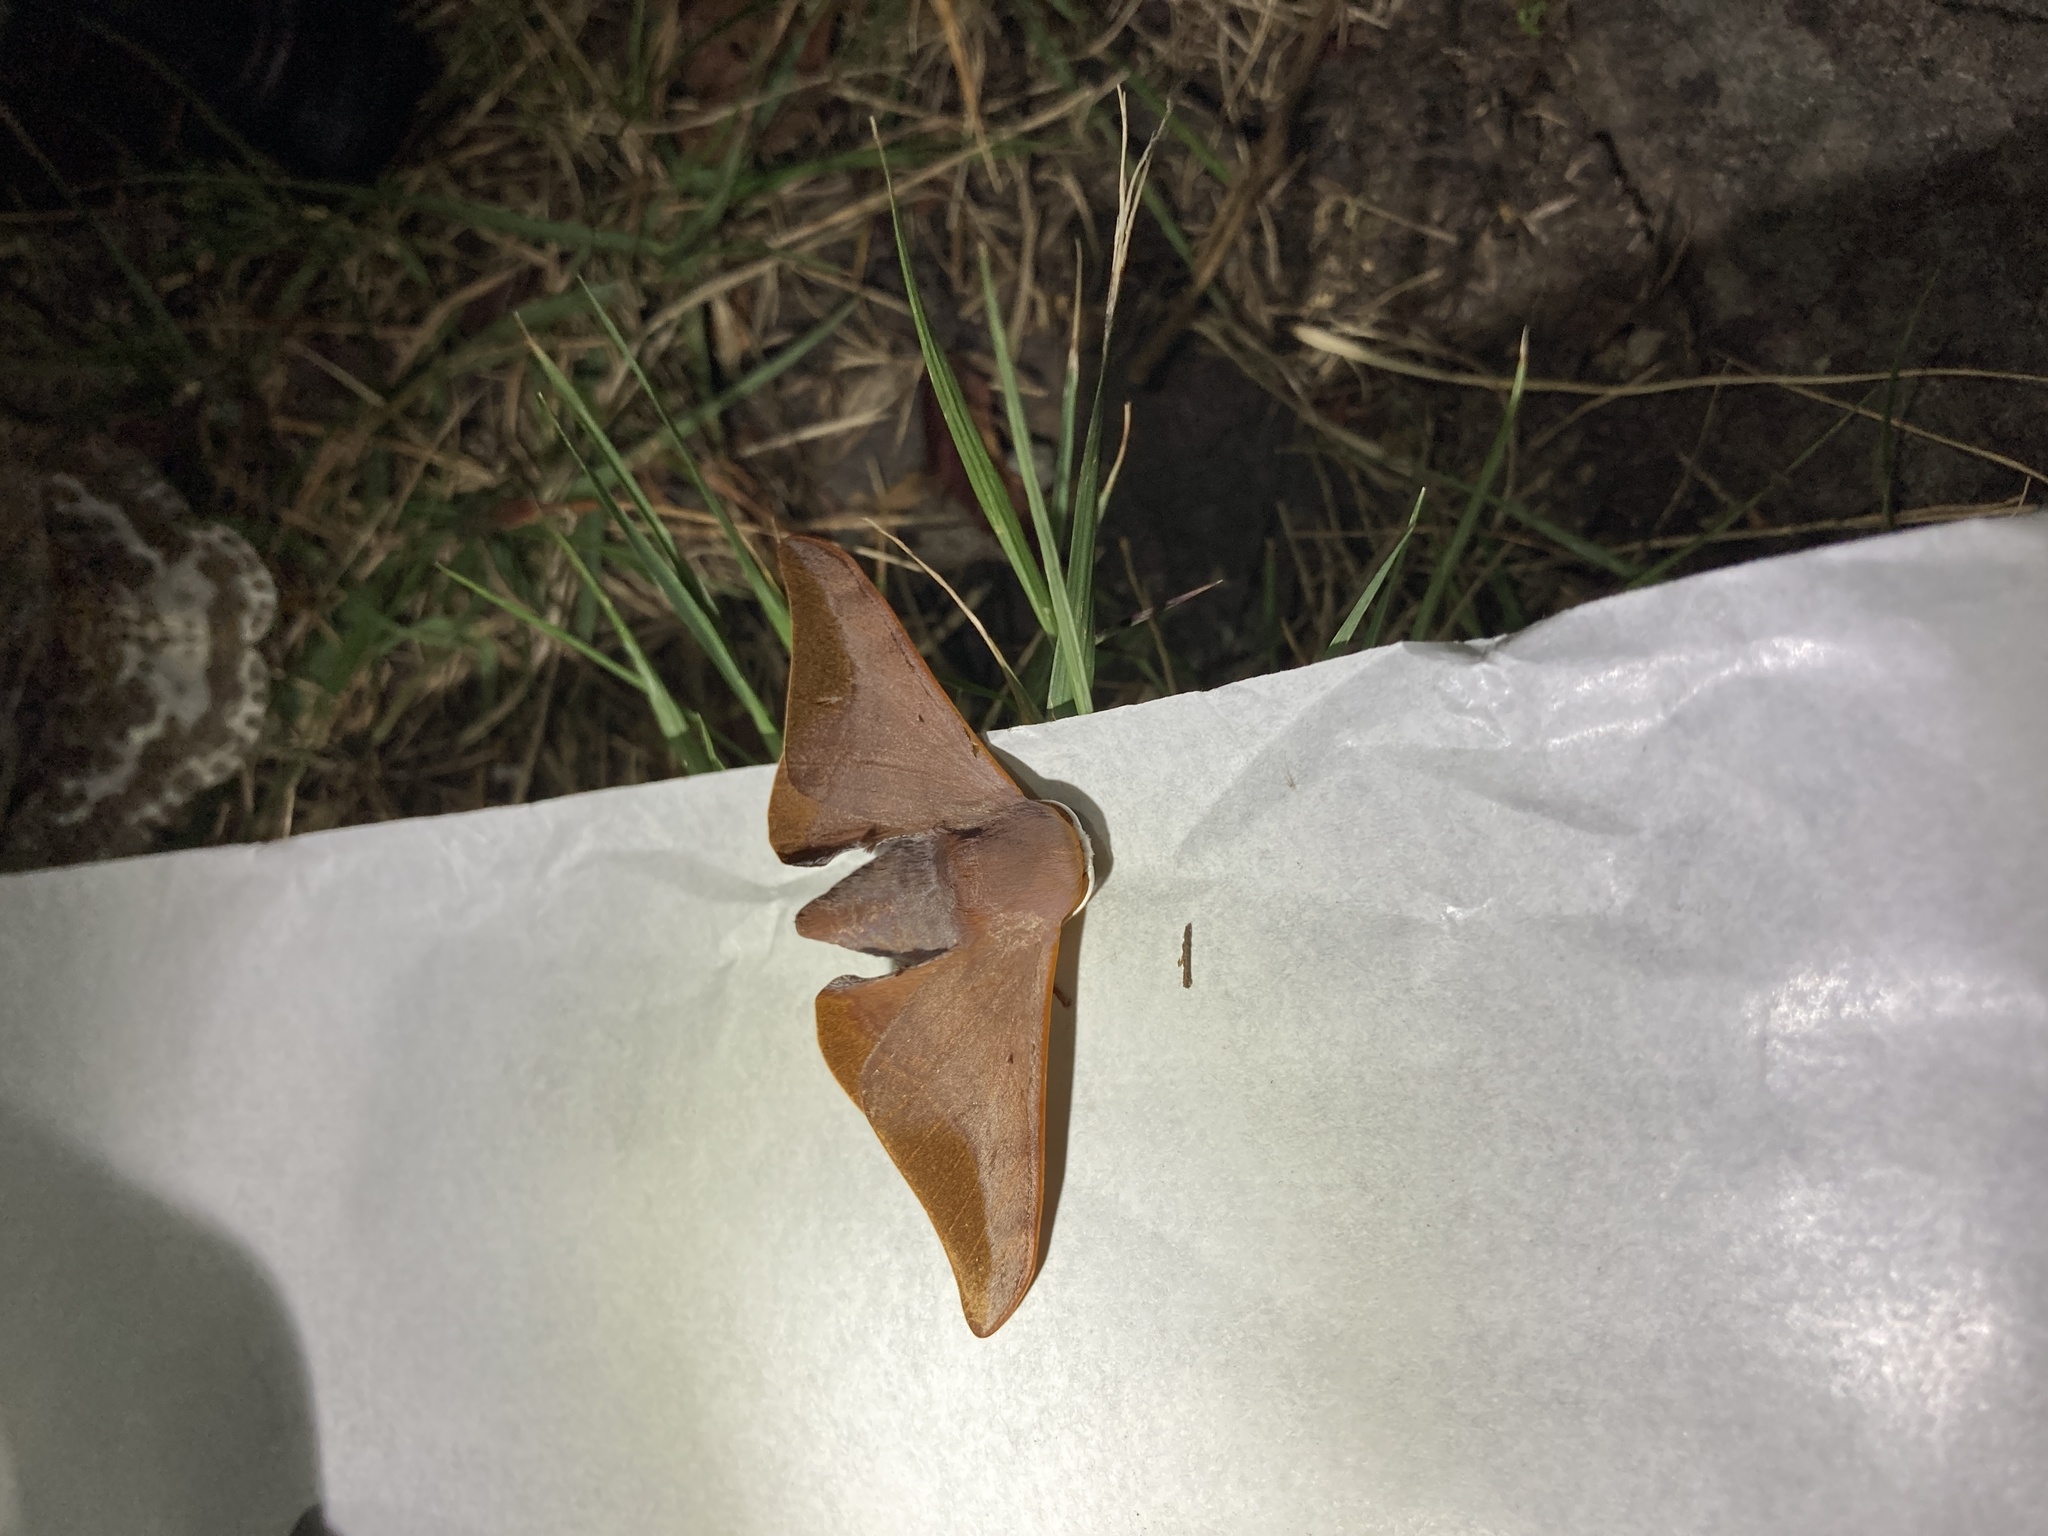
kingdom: Animalia
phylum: Arthropoda
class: Insecta
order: Lepidoptera
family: Endromidae
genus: Comparmustilia
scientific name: Comparmustilia gerontica
